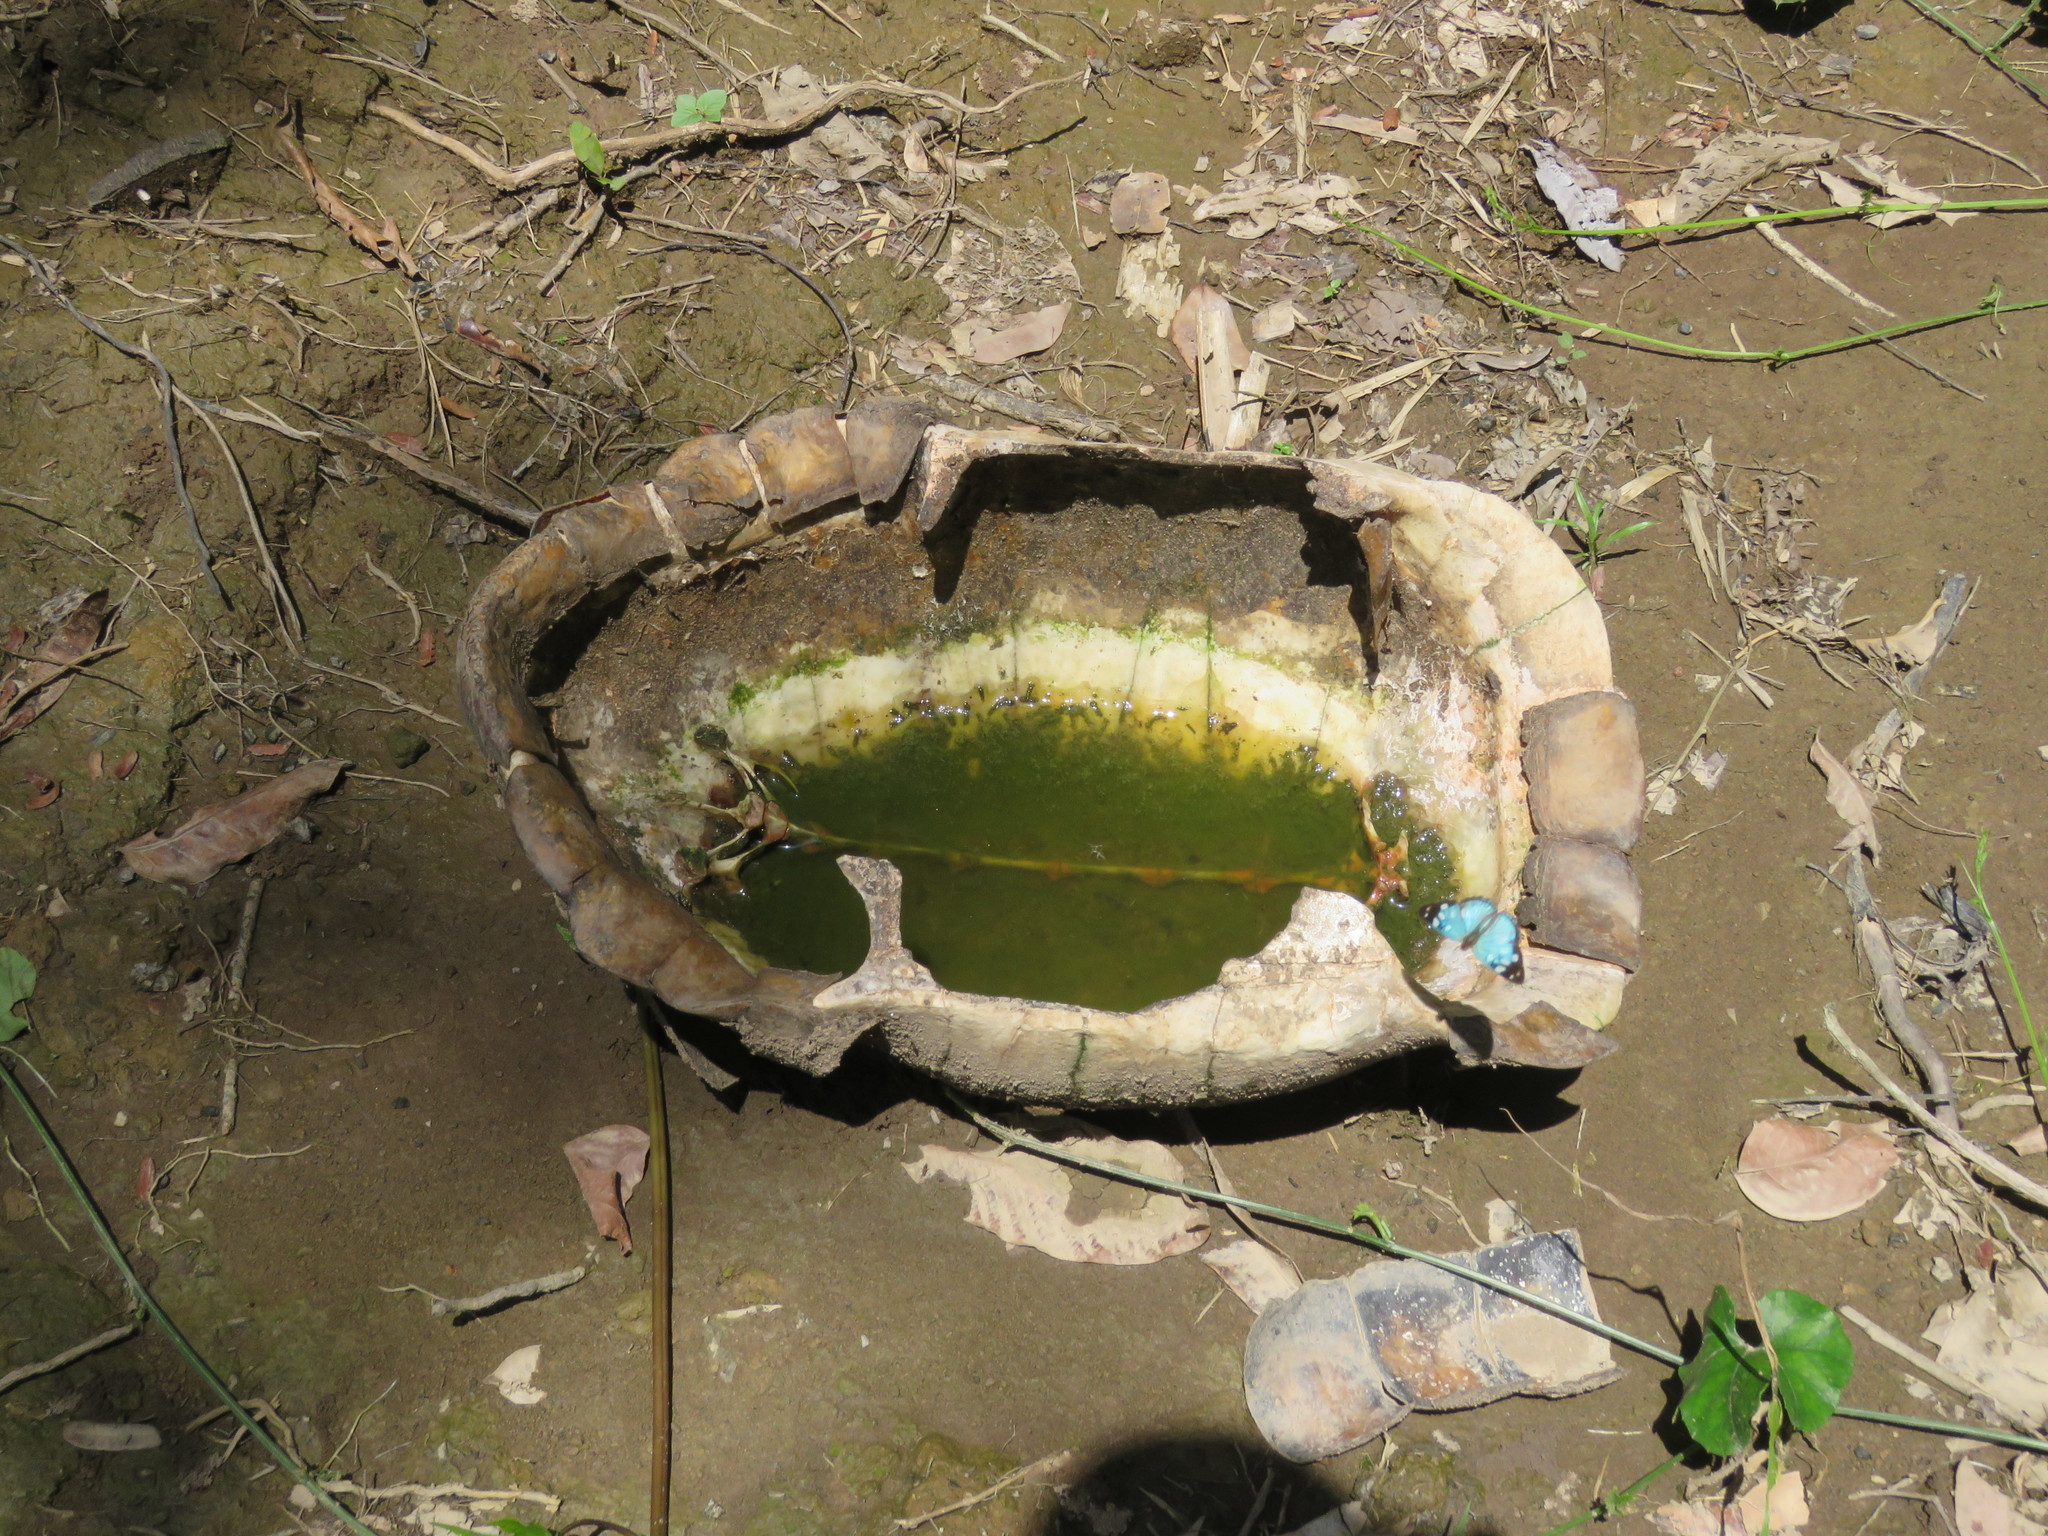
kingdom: Animalia
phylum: Chordata
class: Testudines
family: Testudinidae
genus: Chelonoidis
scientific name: Chelonoidis denticulatus
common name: Yellow-footed tortoise
